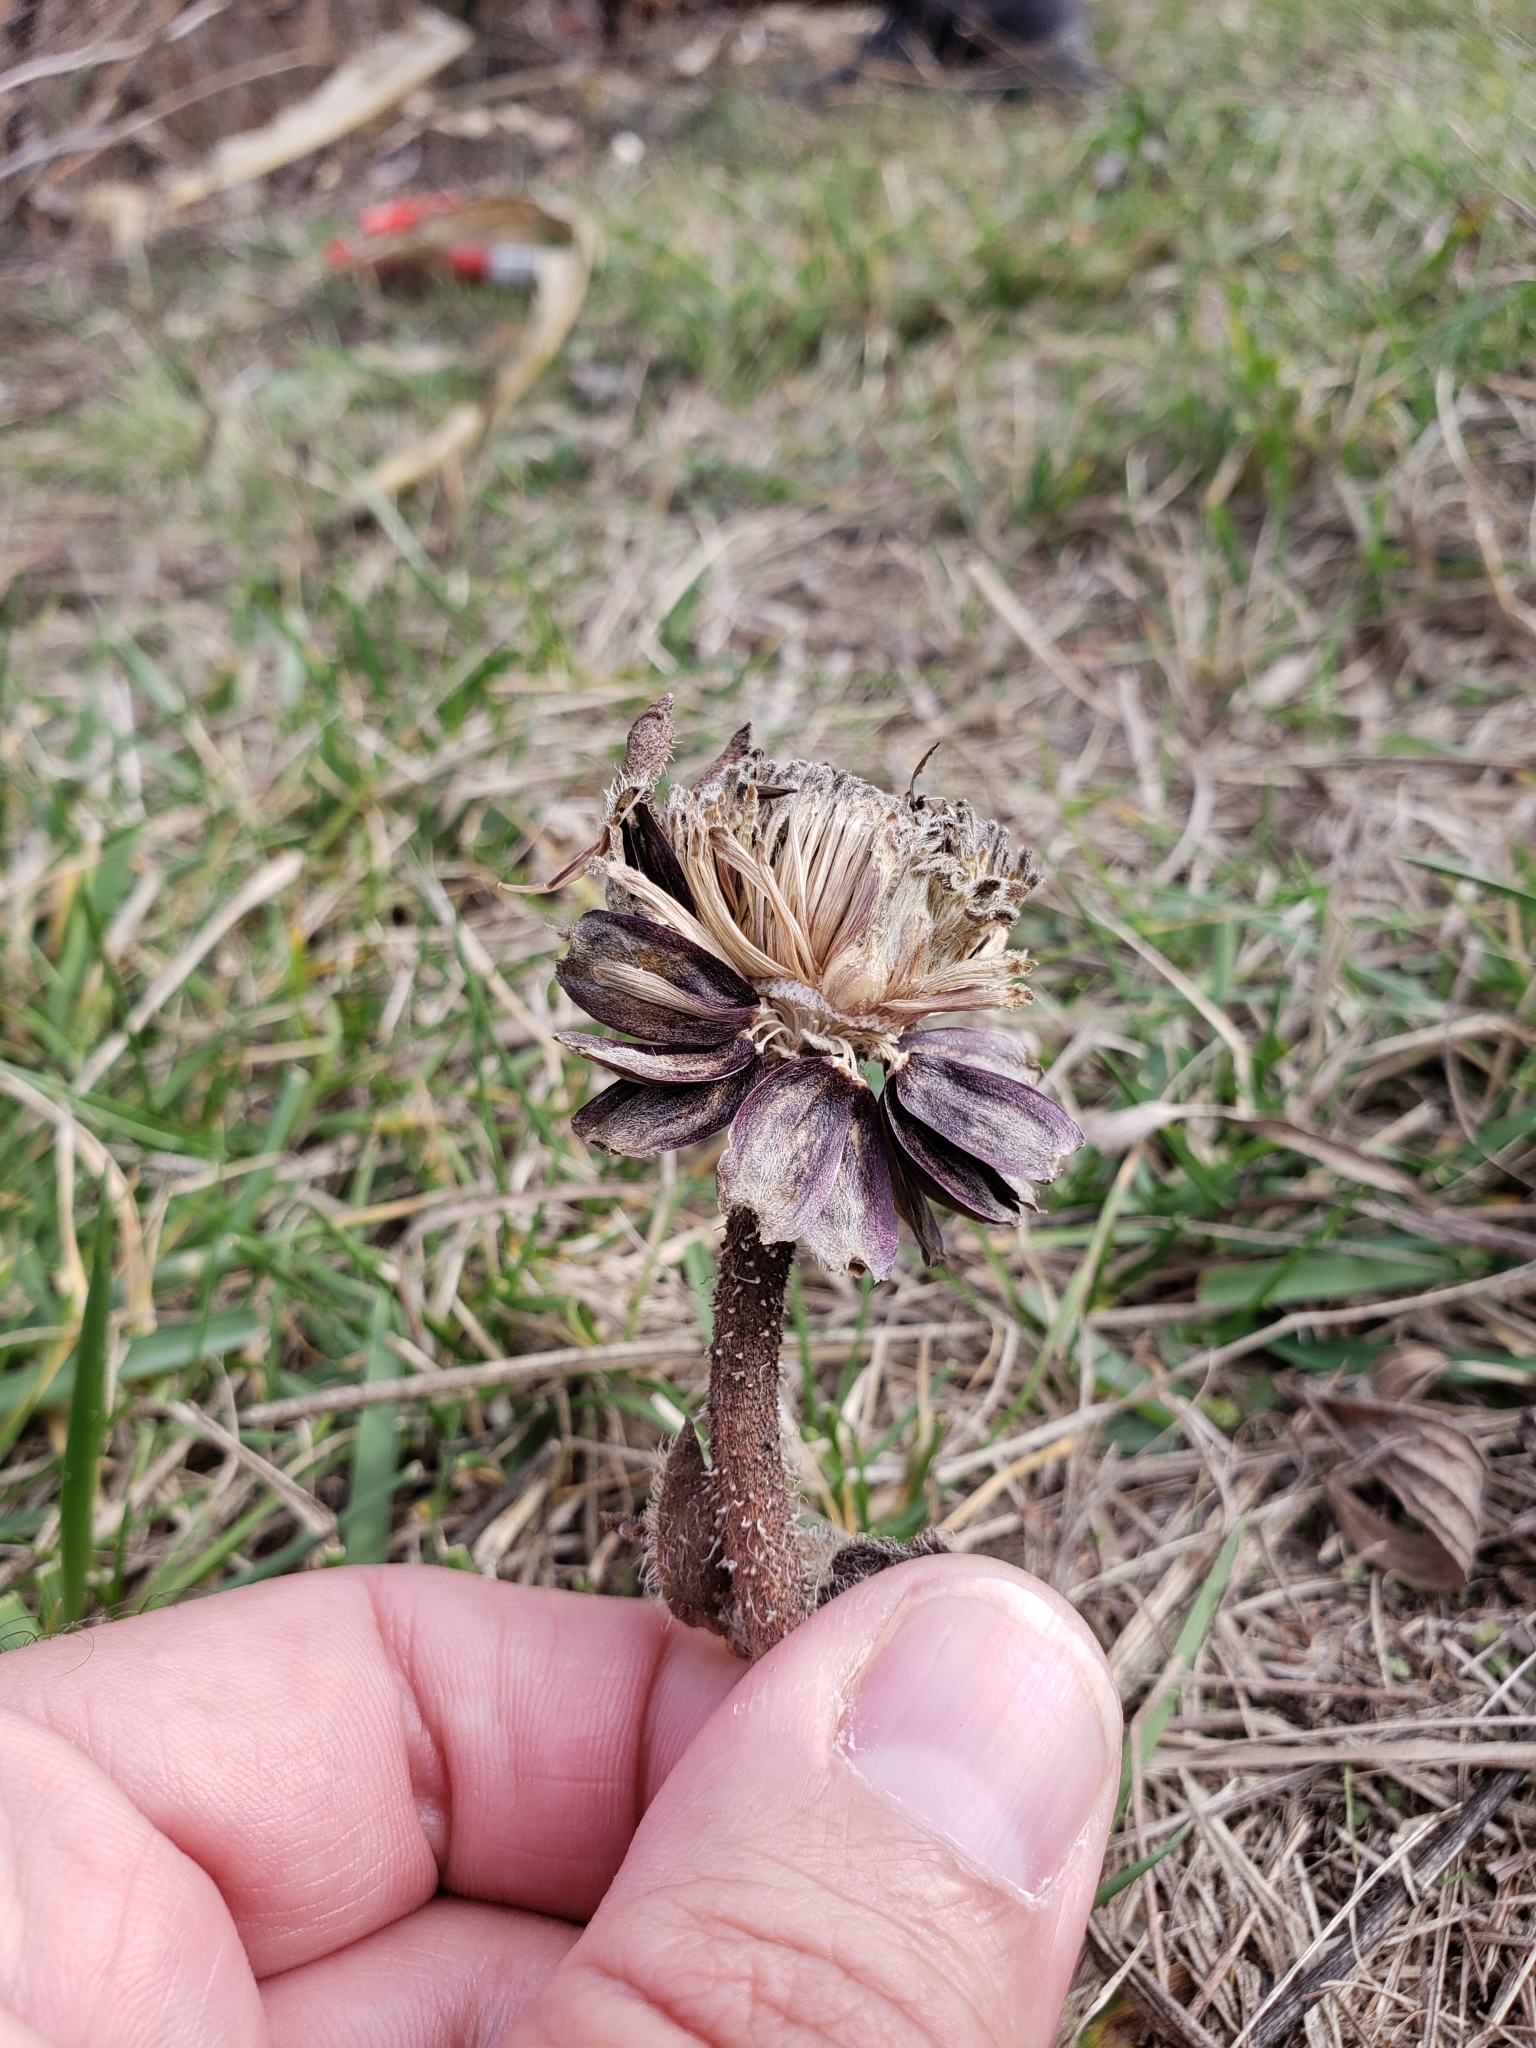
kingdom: Animalia
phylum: Arthropoda
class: Insecta
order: Hymenoptera
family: Cynipidae
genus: Antistrophus
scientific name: Antistrophus
